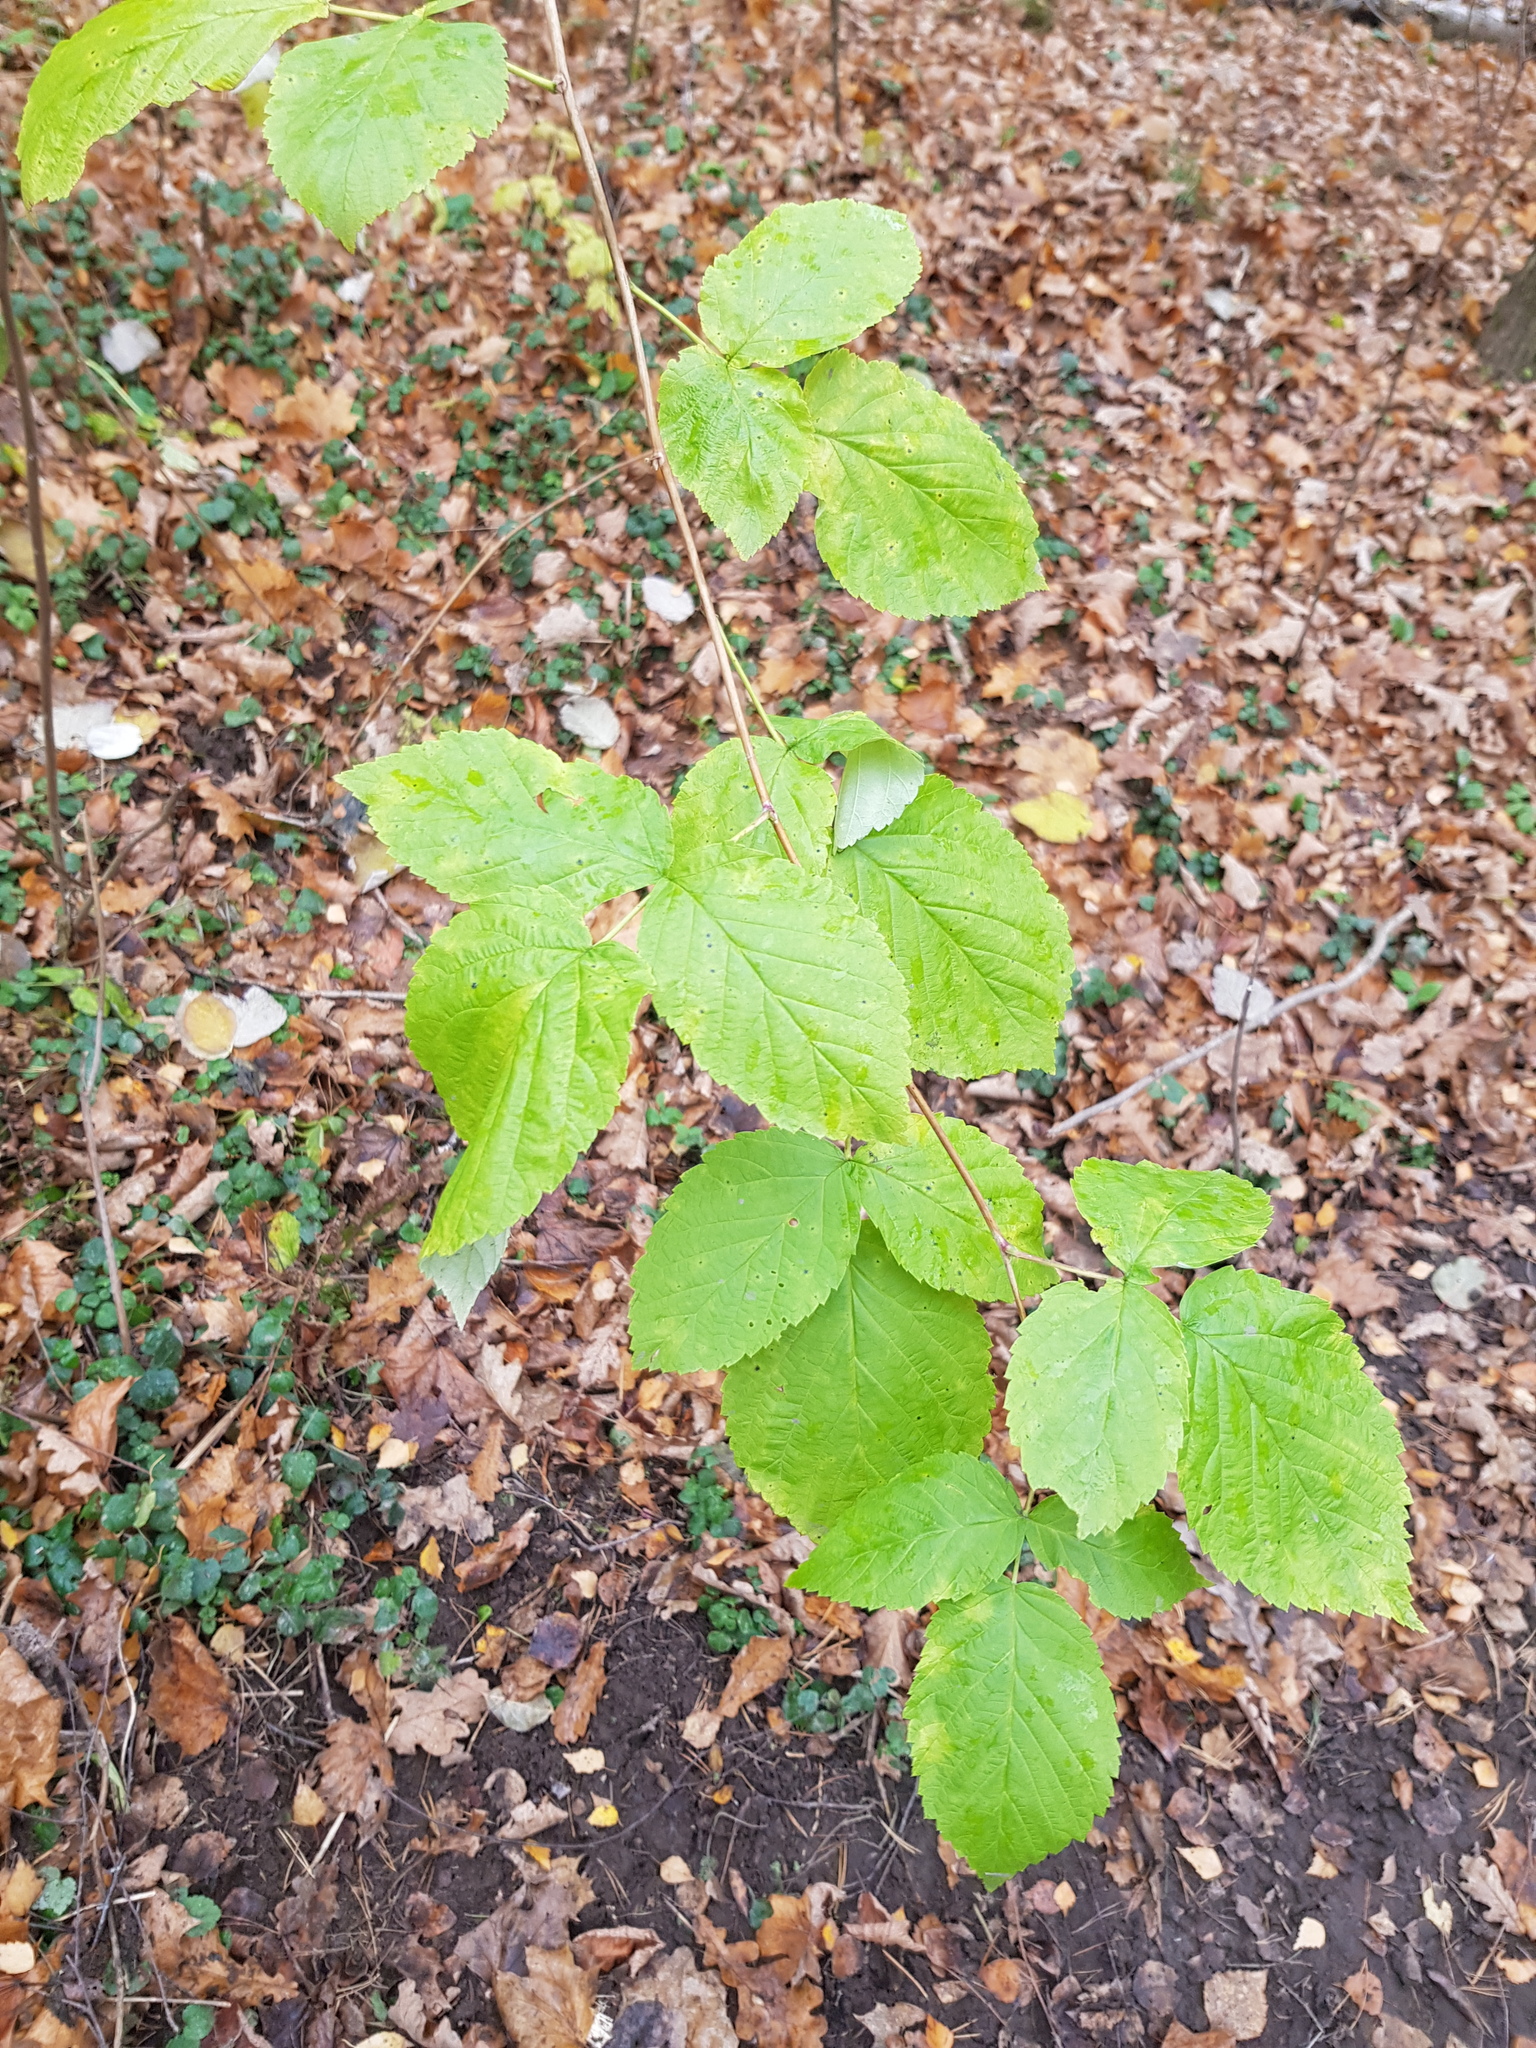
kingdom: Plantae
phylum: Tracheophyta
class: Magnoliopsida
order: Rosales
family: Rosaceae
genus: Rubus
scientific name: Rubus idaeus
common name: Raspberry
